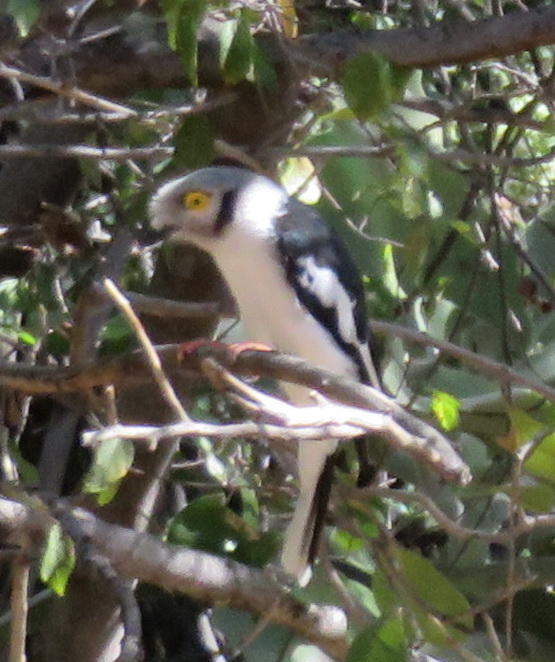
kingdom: Animalia
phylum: Chordata
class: Aves
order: Passeriformes
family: Prionopidae
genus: Prionops
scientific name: Prionops plumatus
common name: White-crested helmetshrike
